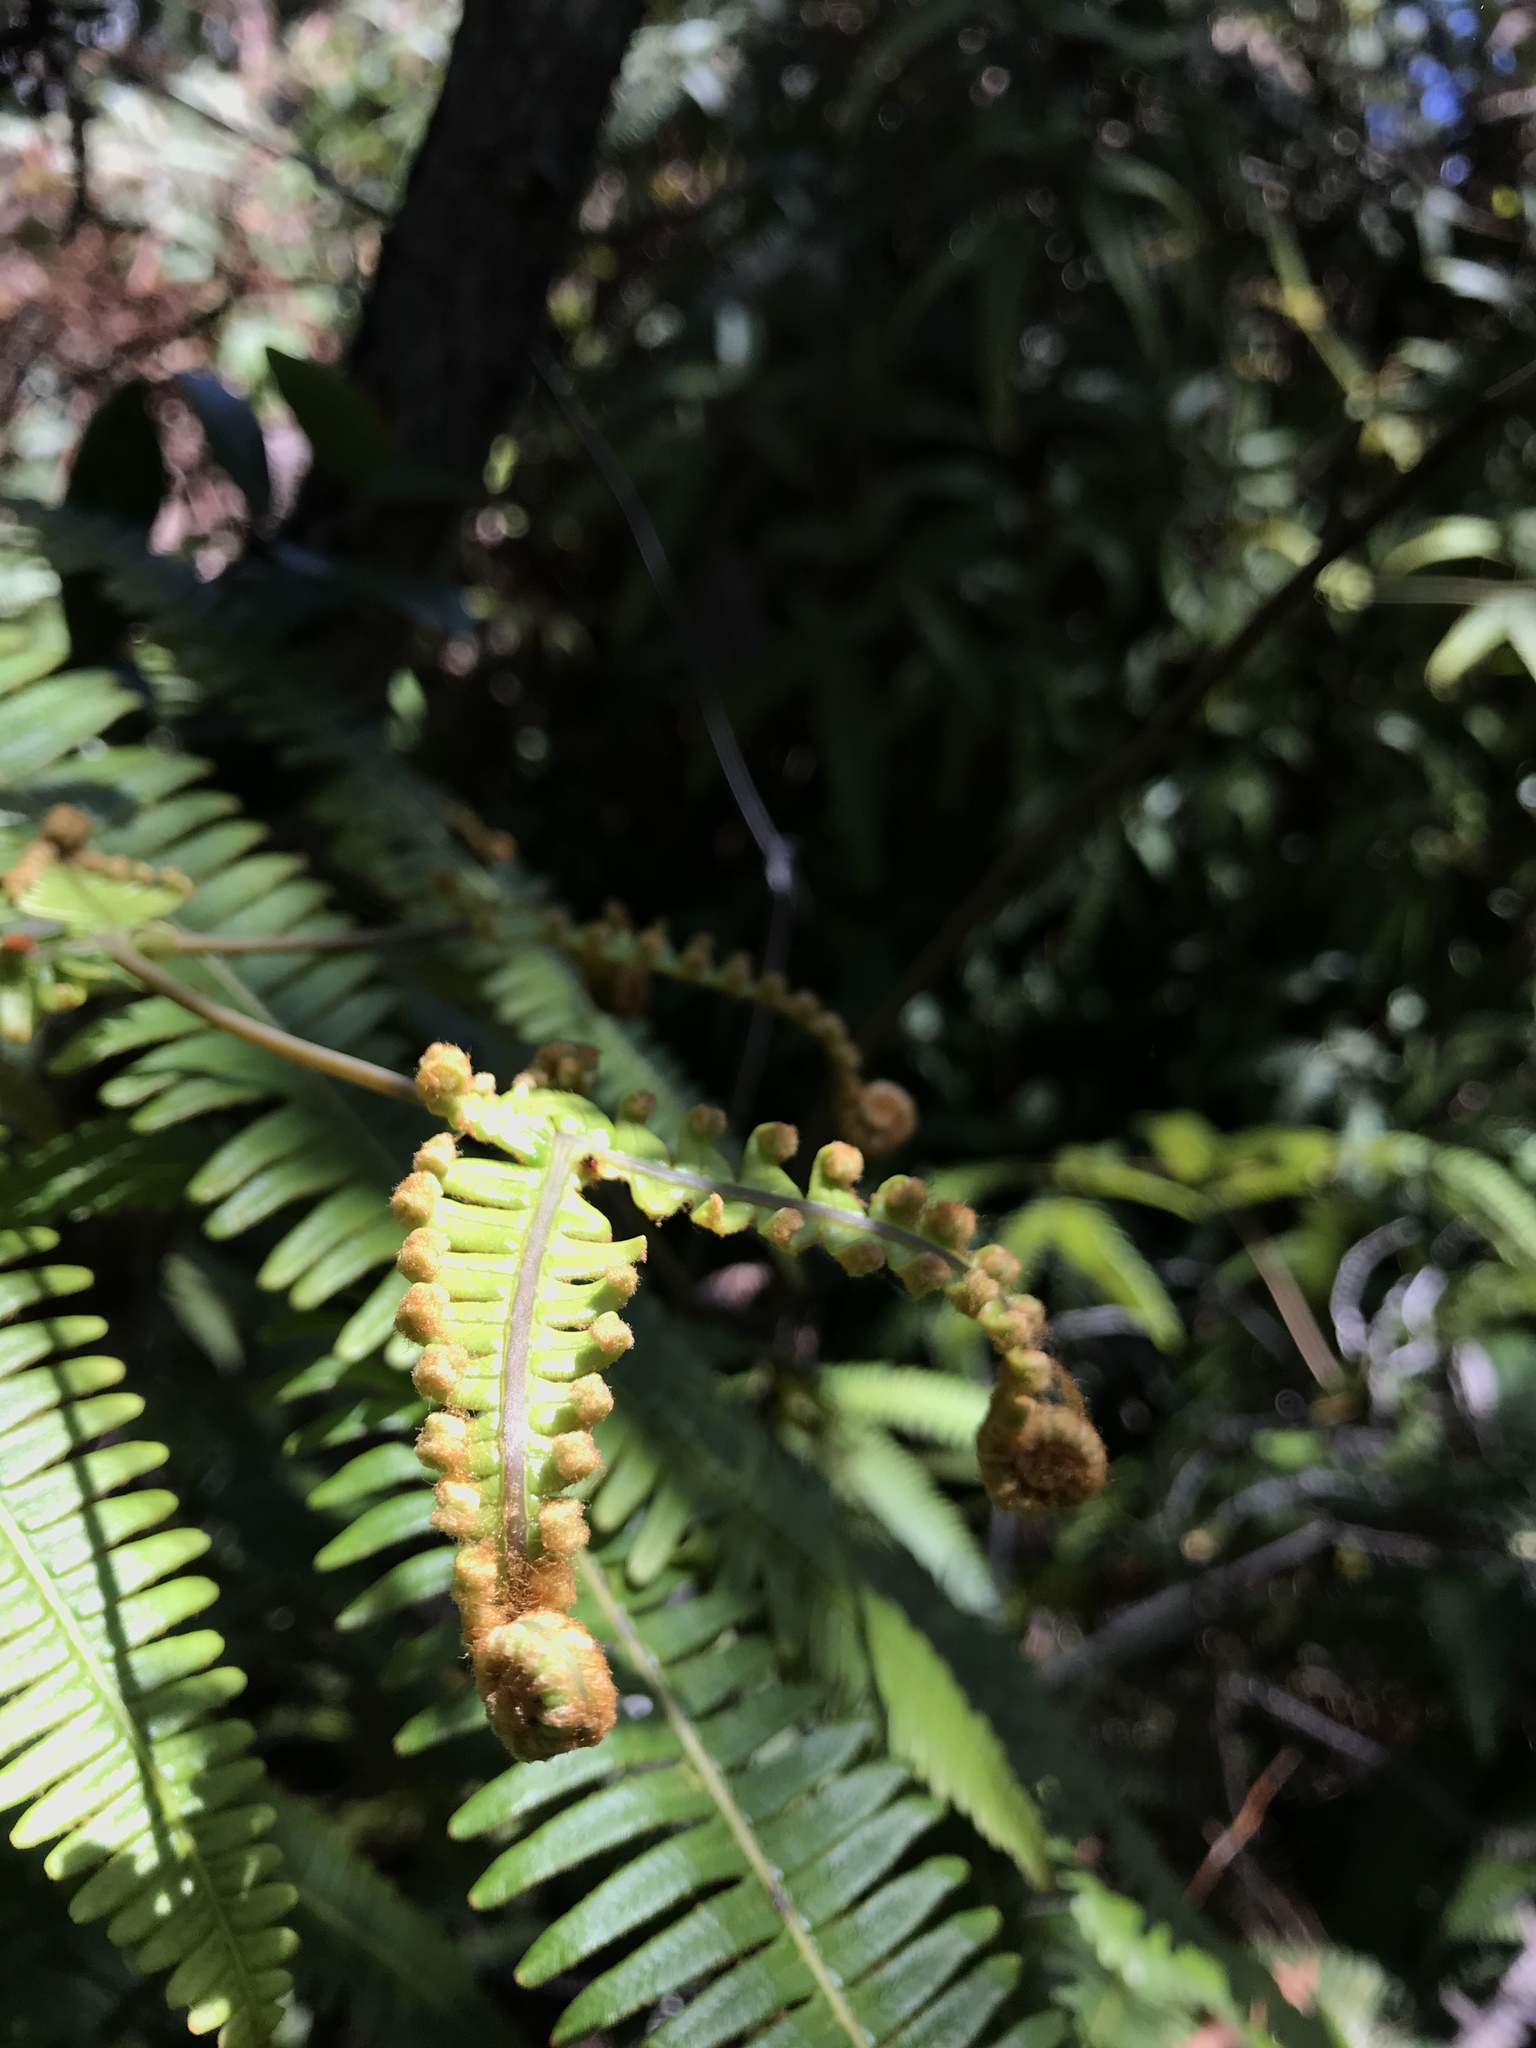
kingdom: Plantae
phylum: Tracheophyta
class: Polypodiopsida
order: Gleicheniales
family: Gleicheniaceae
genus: Dicranopteris
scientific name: Dicranopteris linearis
